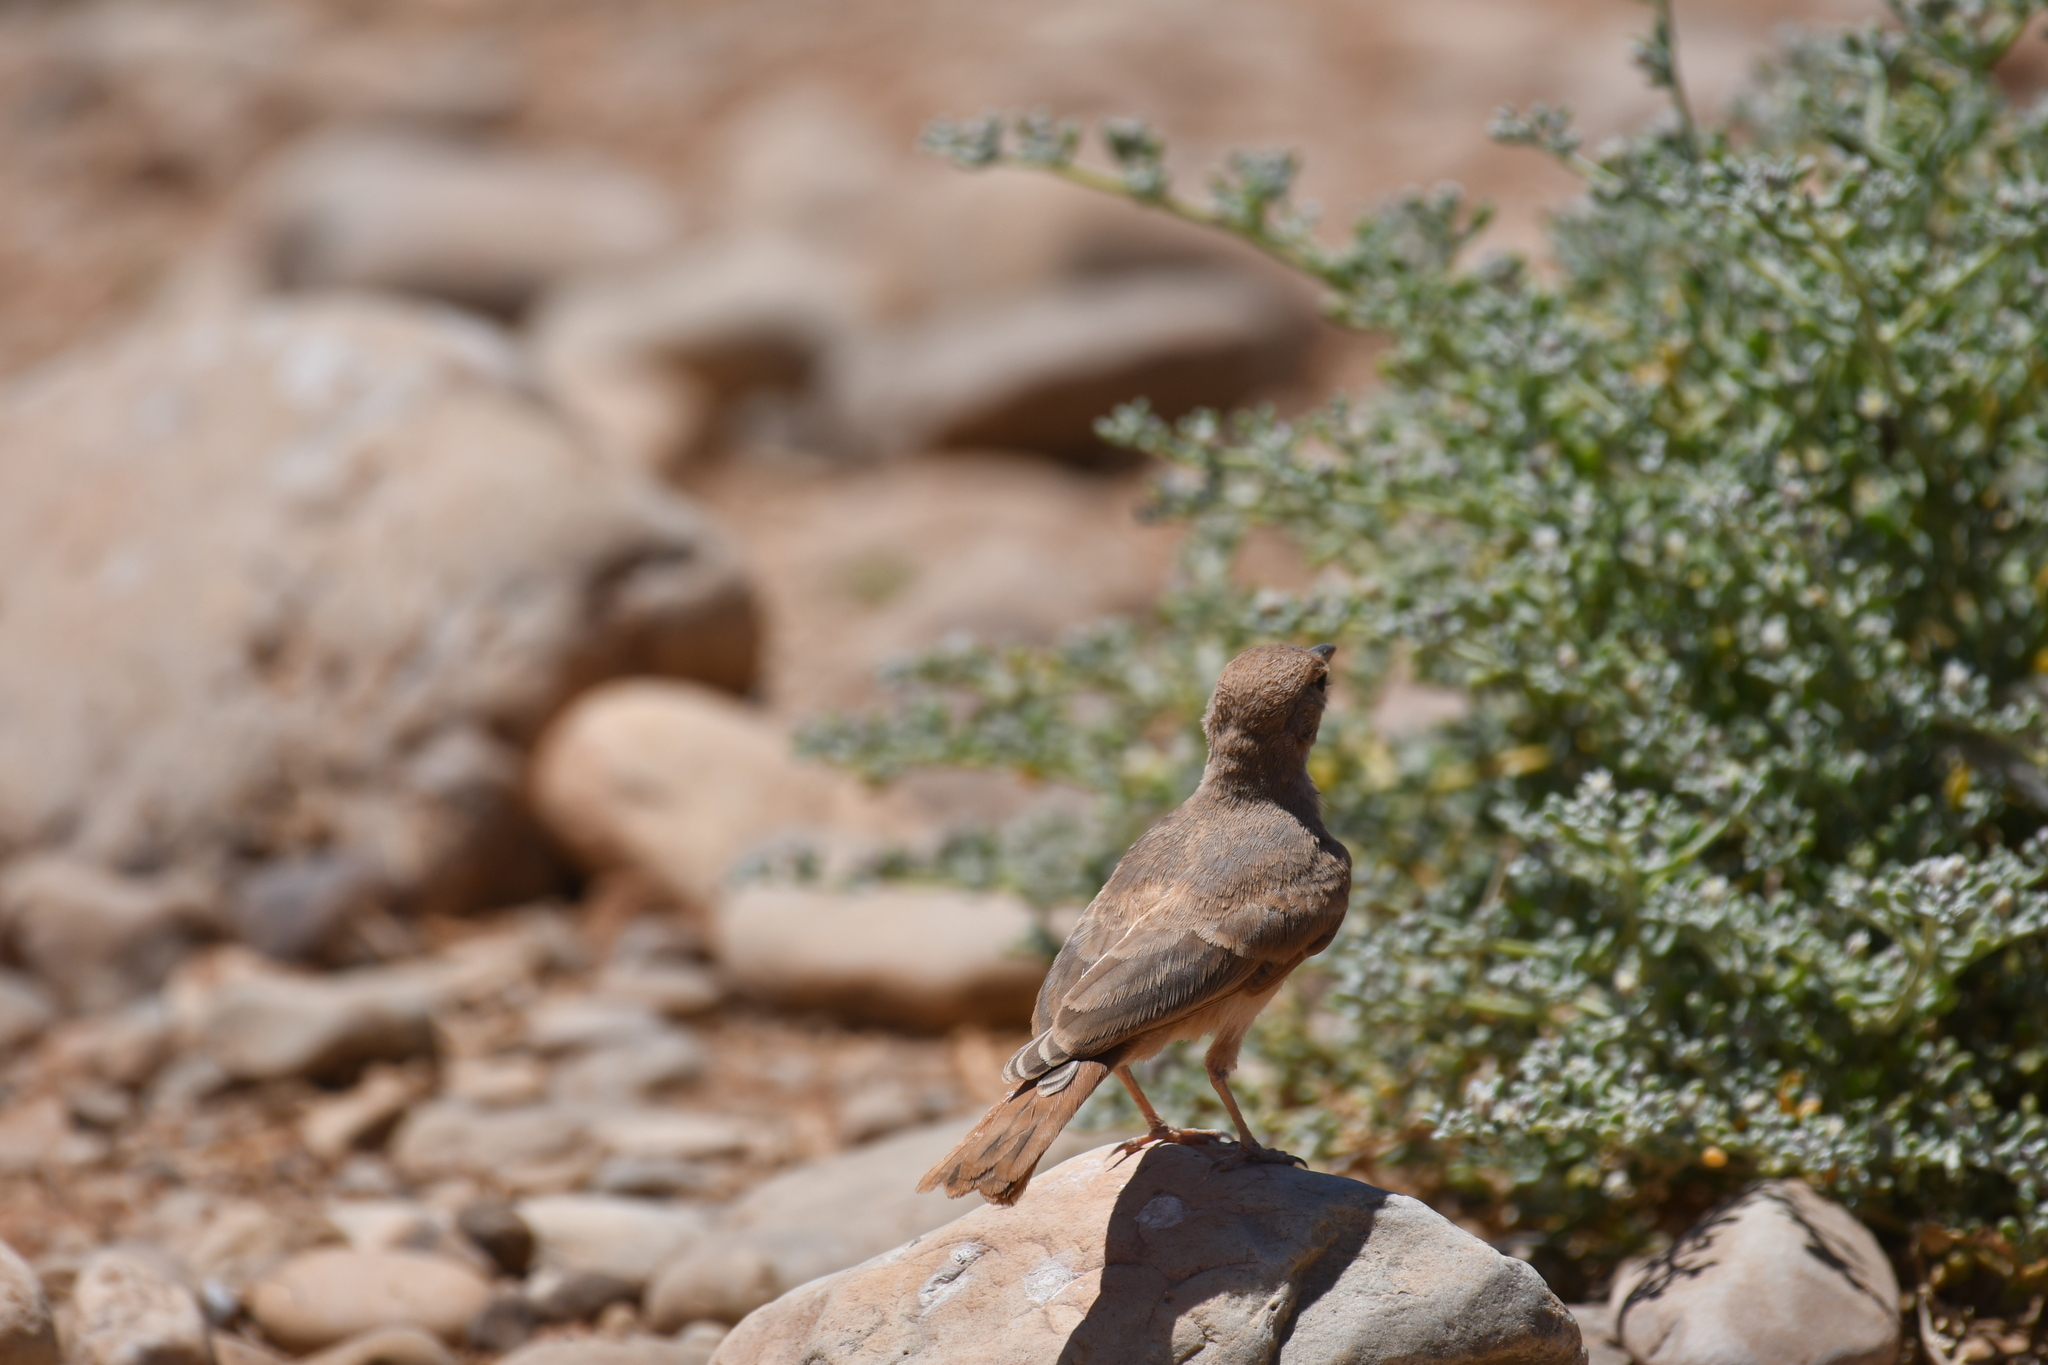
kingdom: Animalia
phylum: Chordata
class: Aves
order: Passeriformes
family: Alaudidae
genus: Ammomanes
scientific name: Ammomanes deserti
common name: Desert lark
